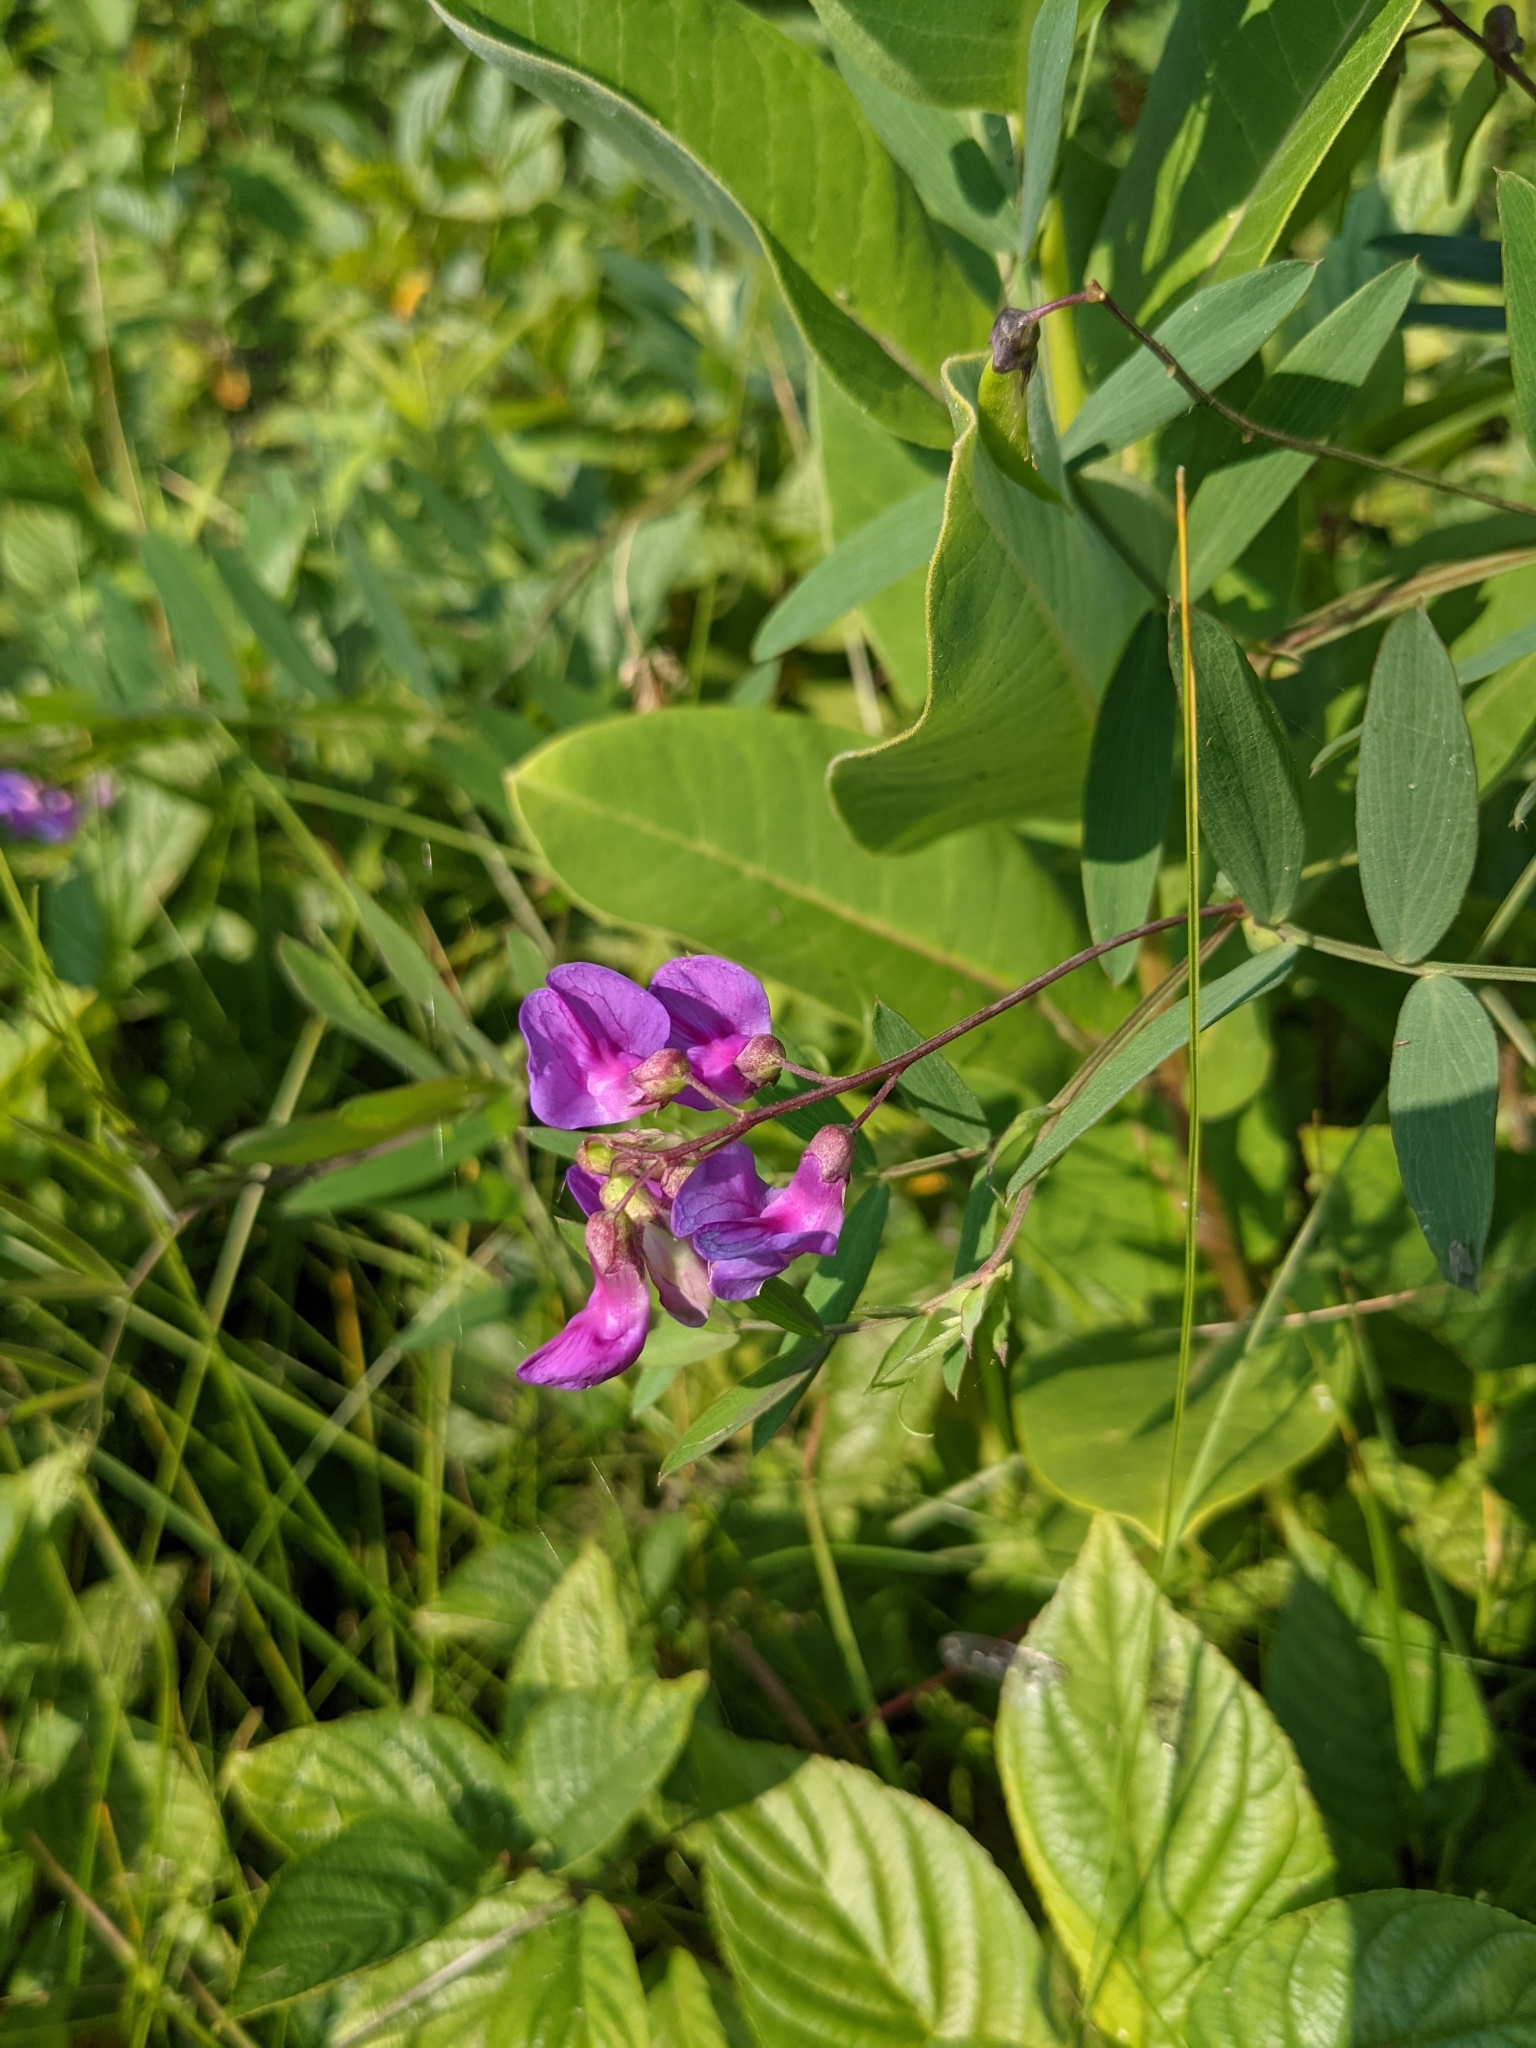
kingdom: Plantae
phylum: Tracheophyta
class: Magnoliopsida
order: Fabales
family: Fabaceae
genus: Lathyrus
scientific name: Lathyrus palustris
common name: Marsh pea
